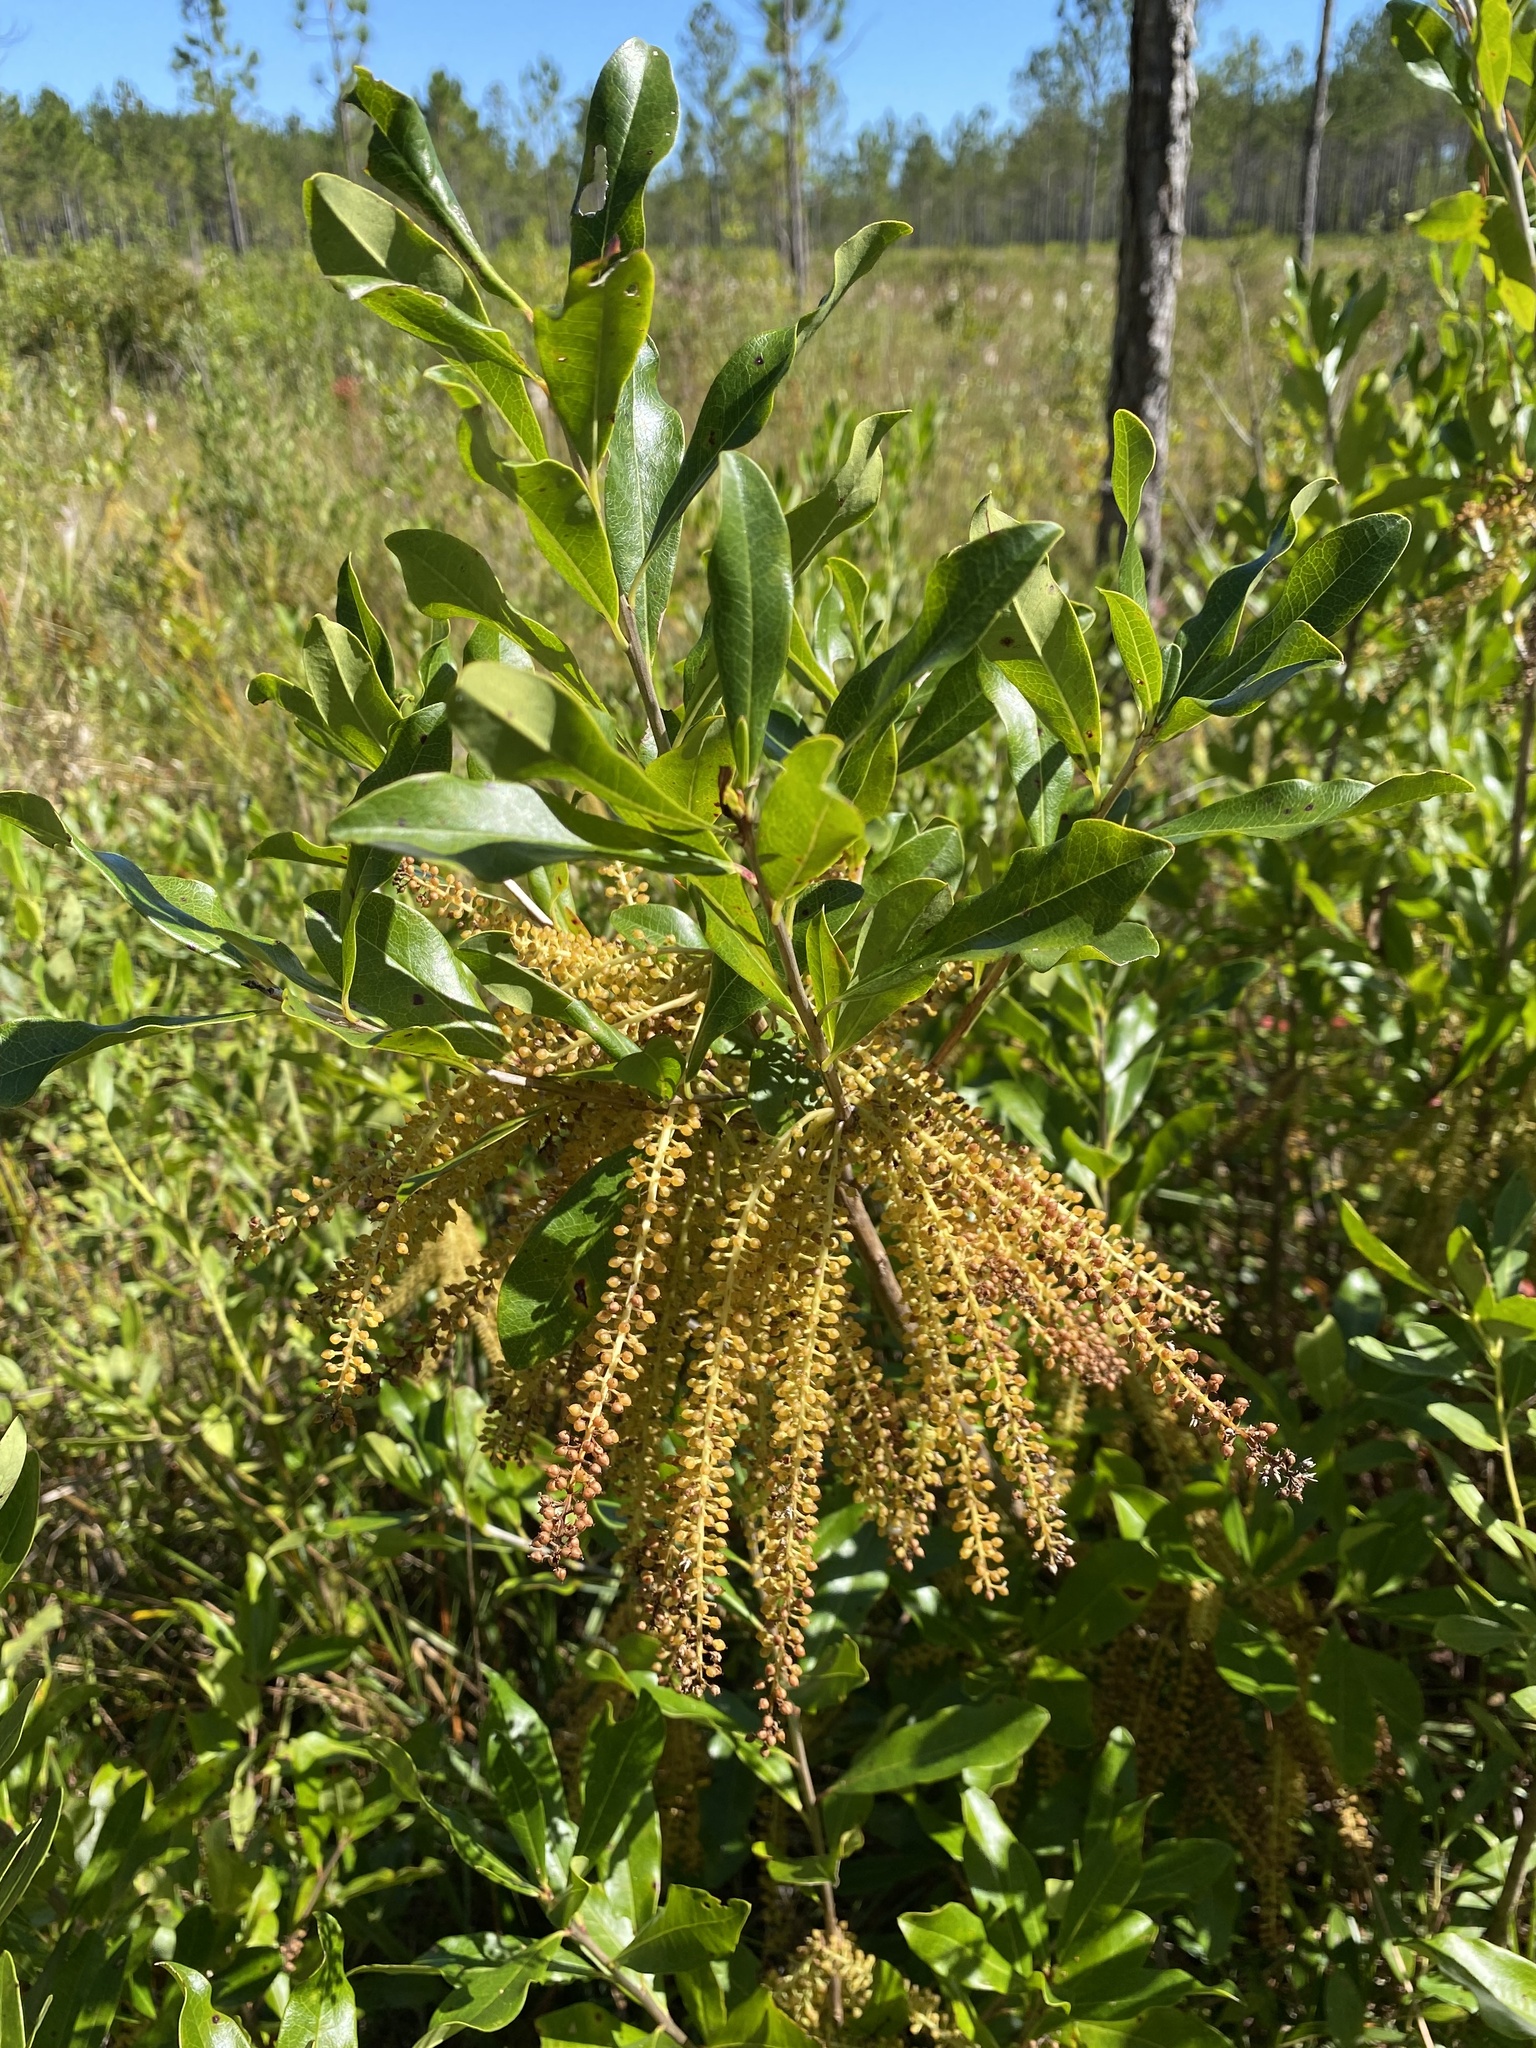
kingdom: Plantae
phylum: Tracheophyta
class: Magnoliopsida
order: Ericales
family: Cyrillaceae
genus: Cyrilla
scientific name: Cyrilla racemiflora
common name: Black titi
